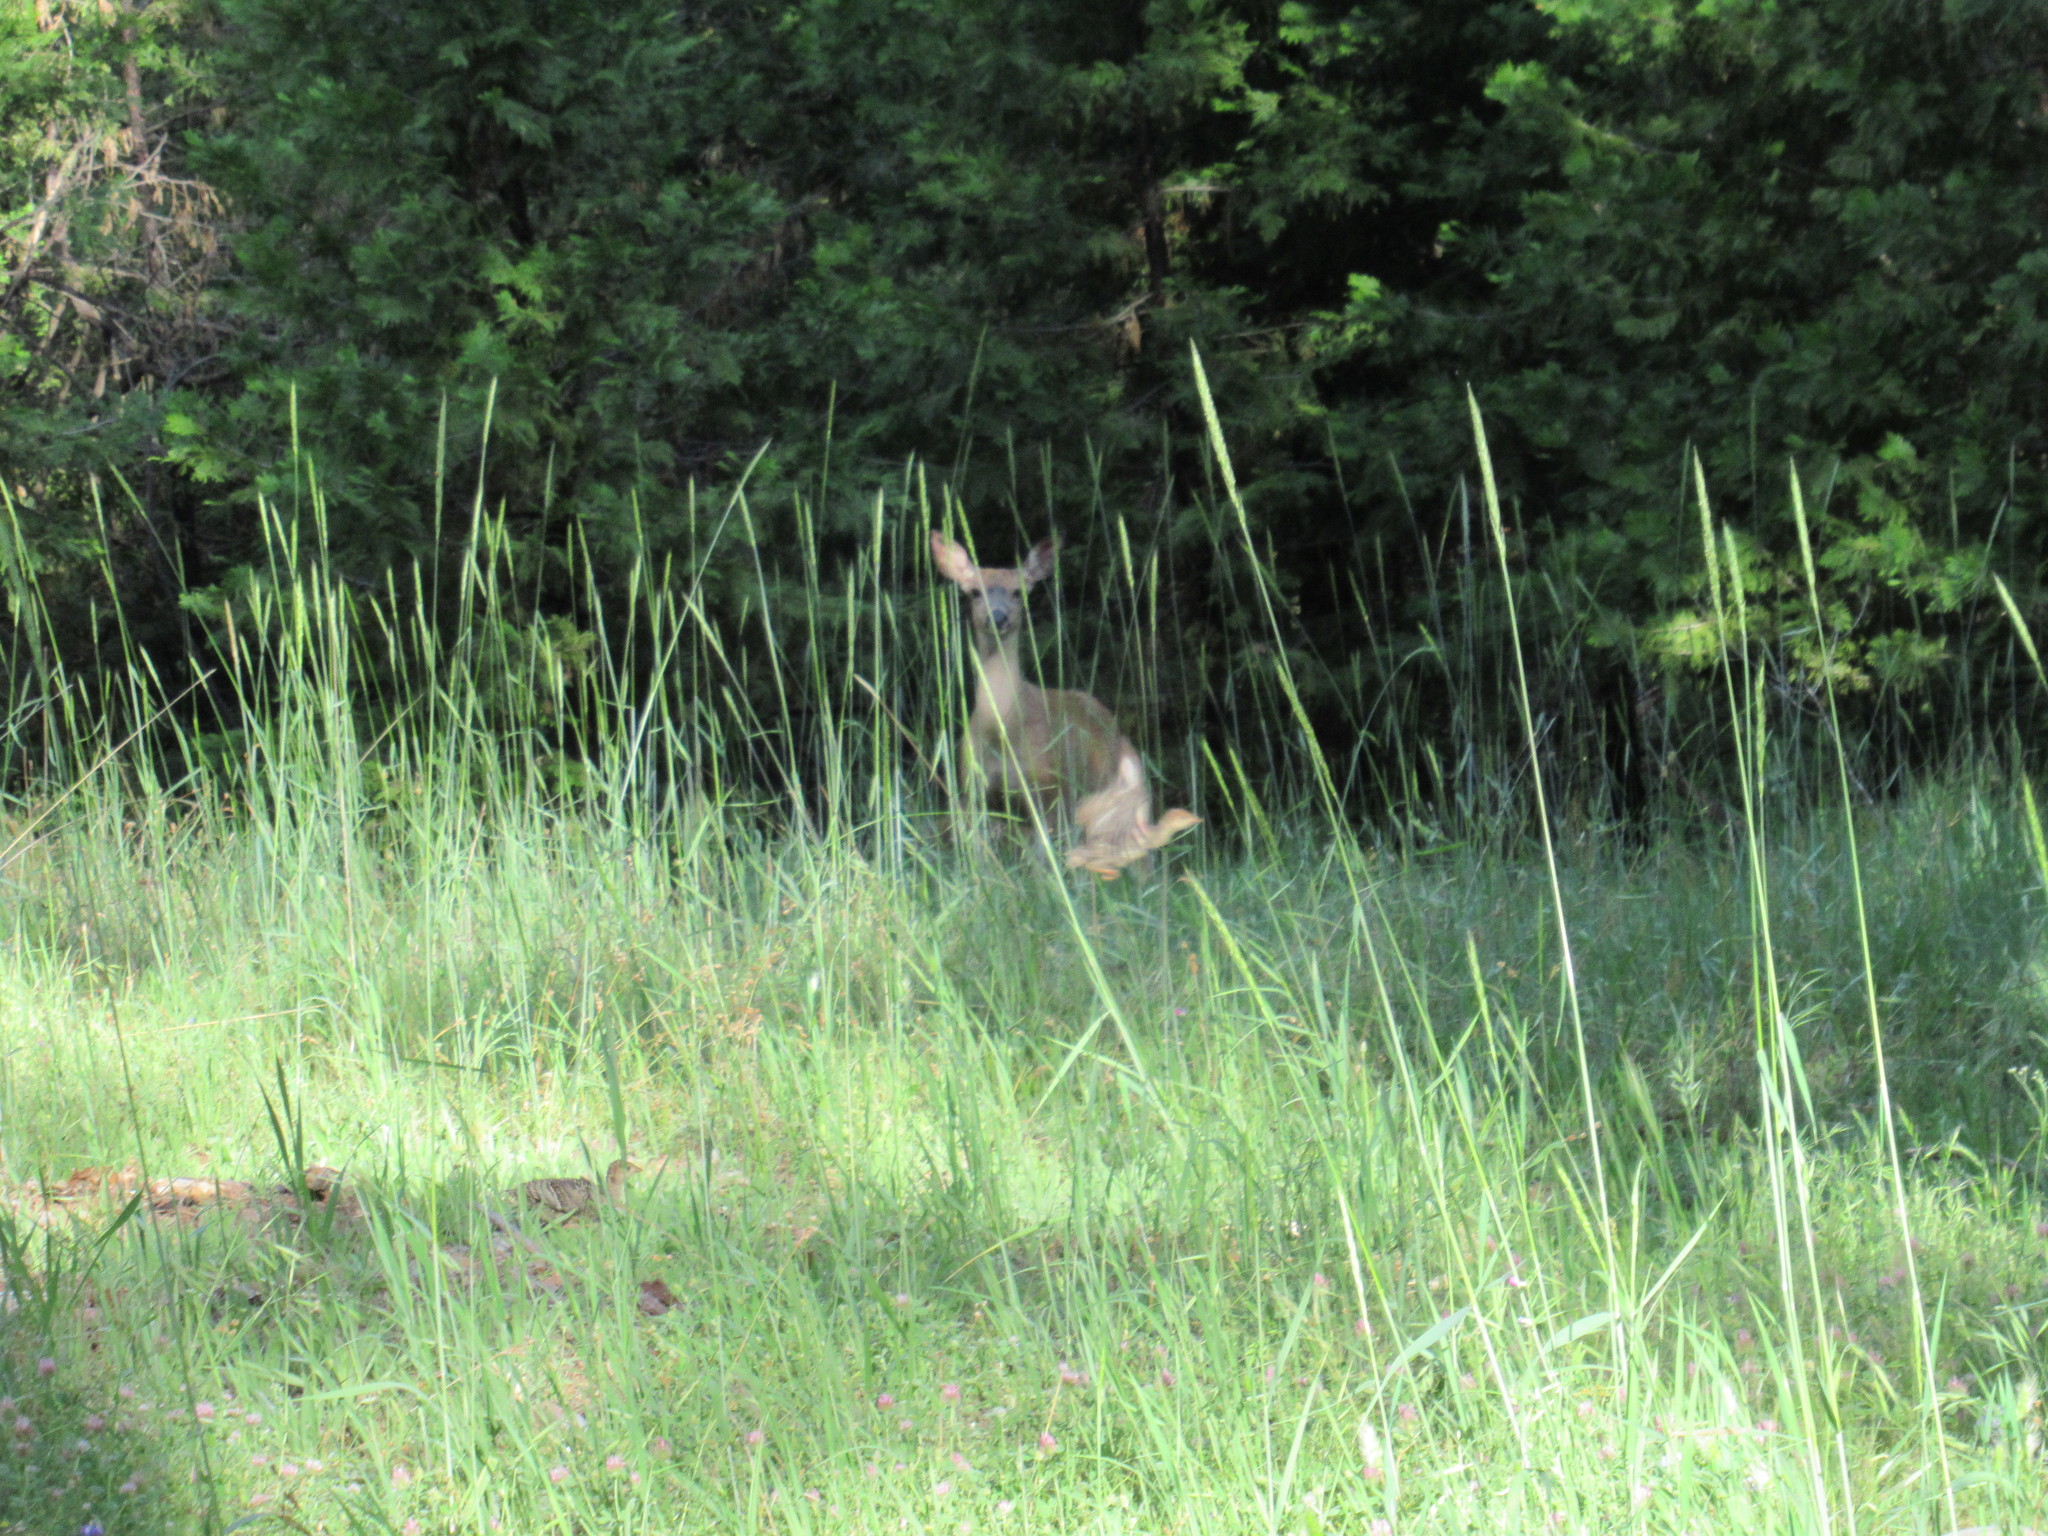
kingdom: Animalia
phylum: Chordata
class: Aves
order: Galliformes
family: Phasianidae
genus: Meleagris
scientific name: Meleagris gallopavo
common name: Wild turkey
